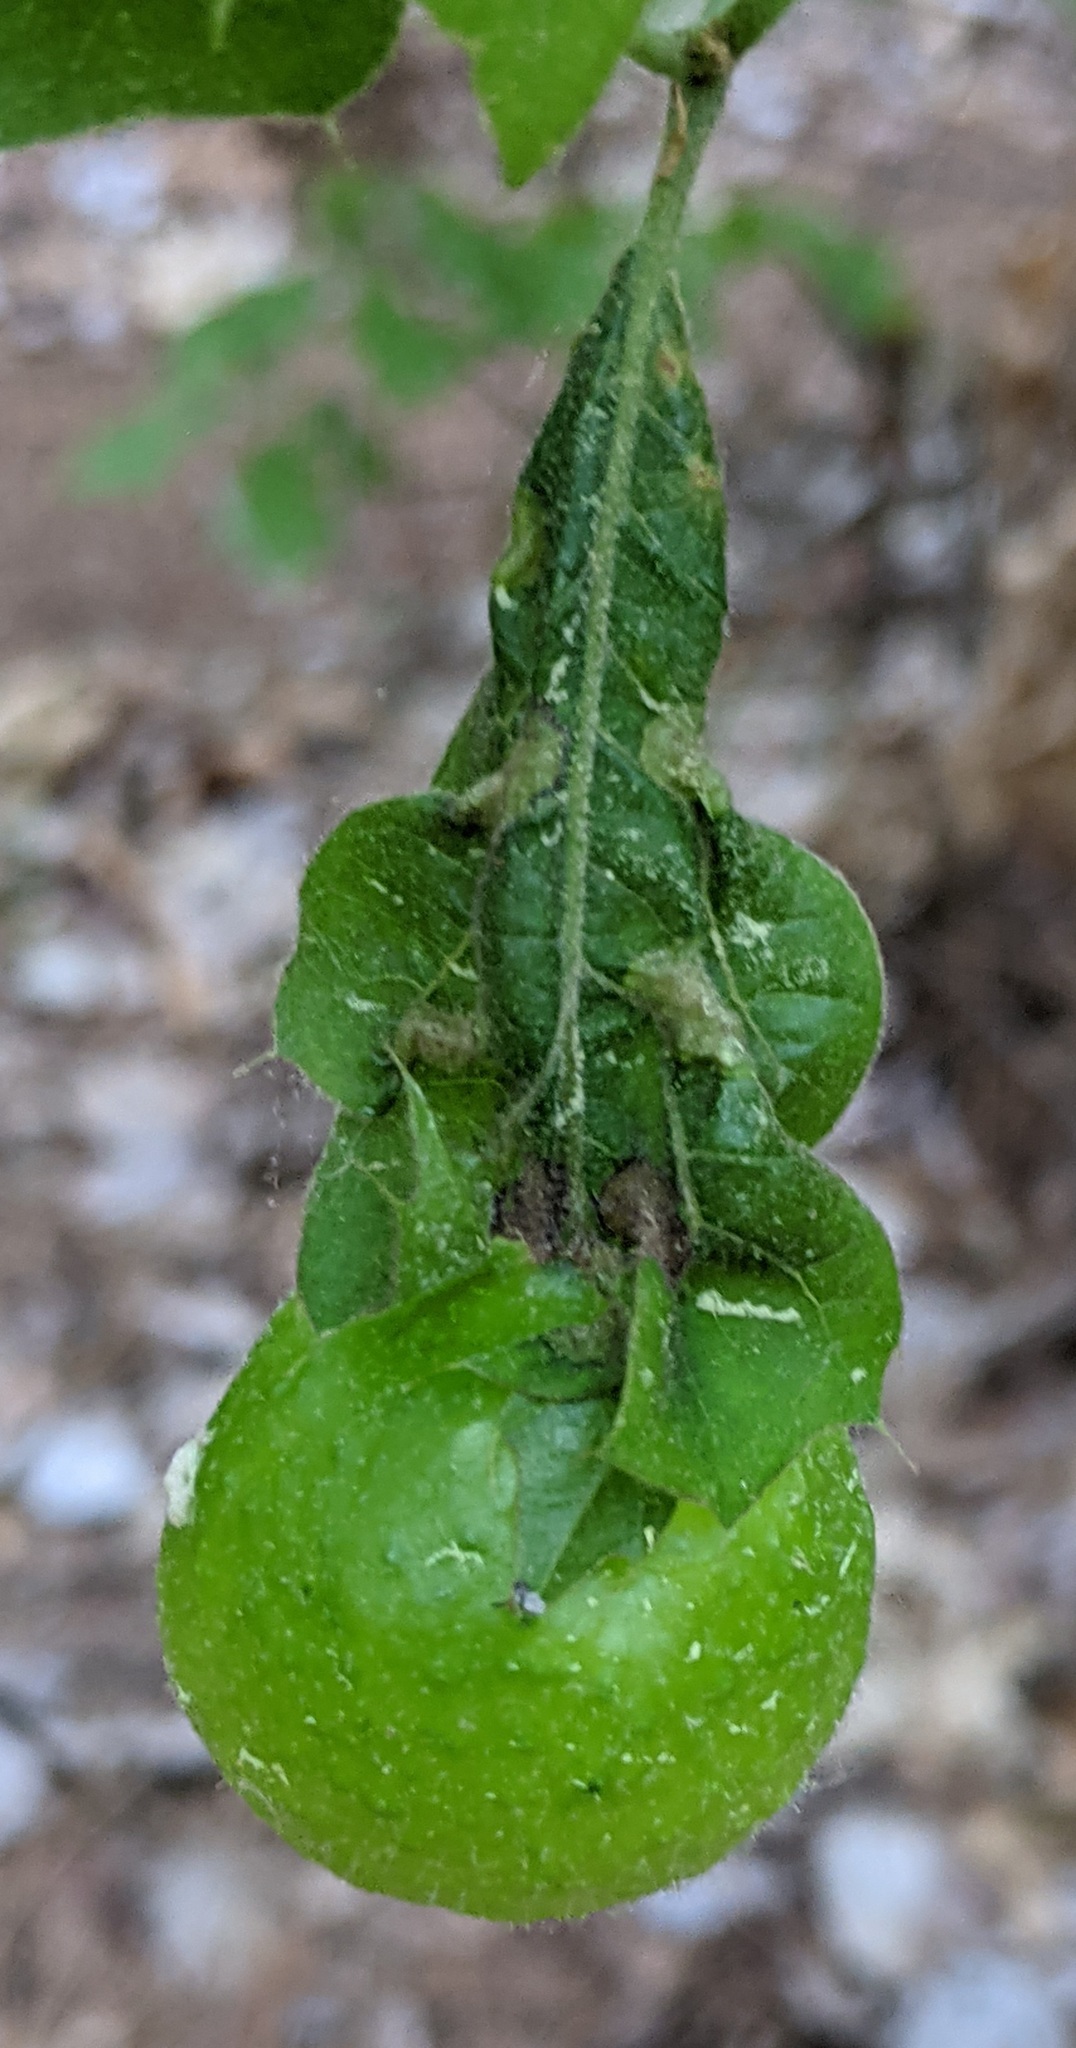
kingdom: Animalia
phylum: Arthropoda
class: Insecta
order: Hymenoptera
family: Cynipidae
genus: Amphibolips
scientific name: Amphibolips
